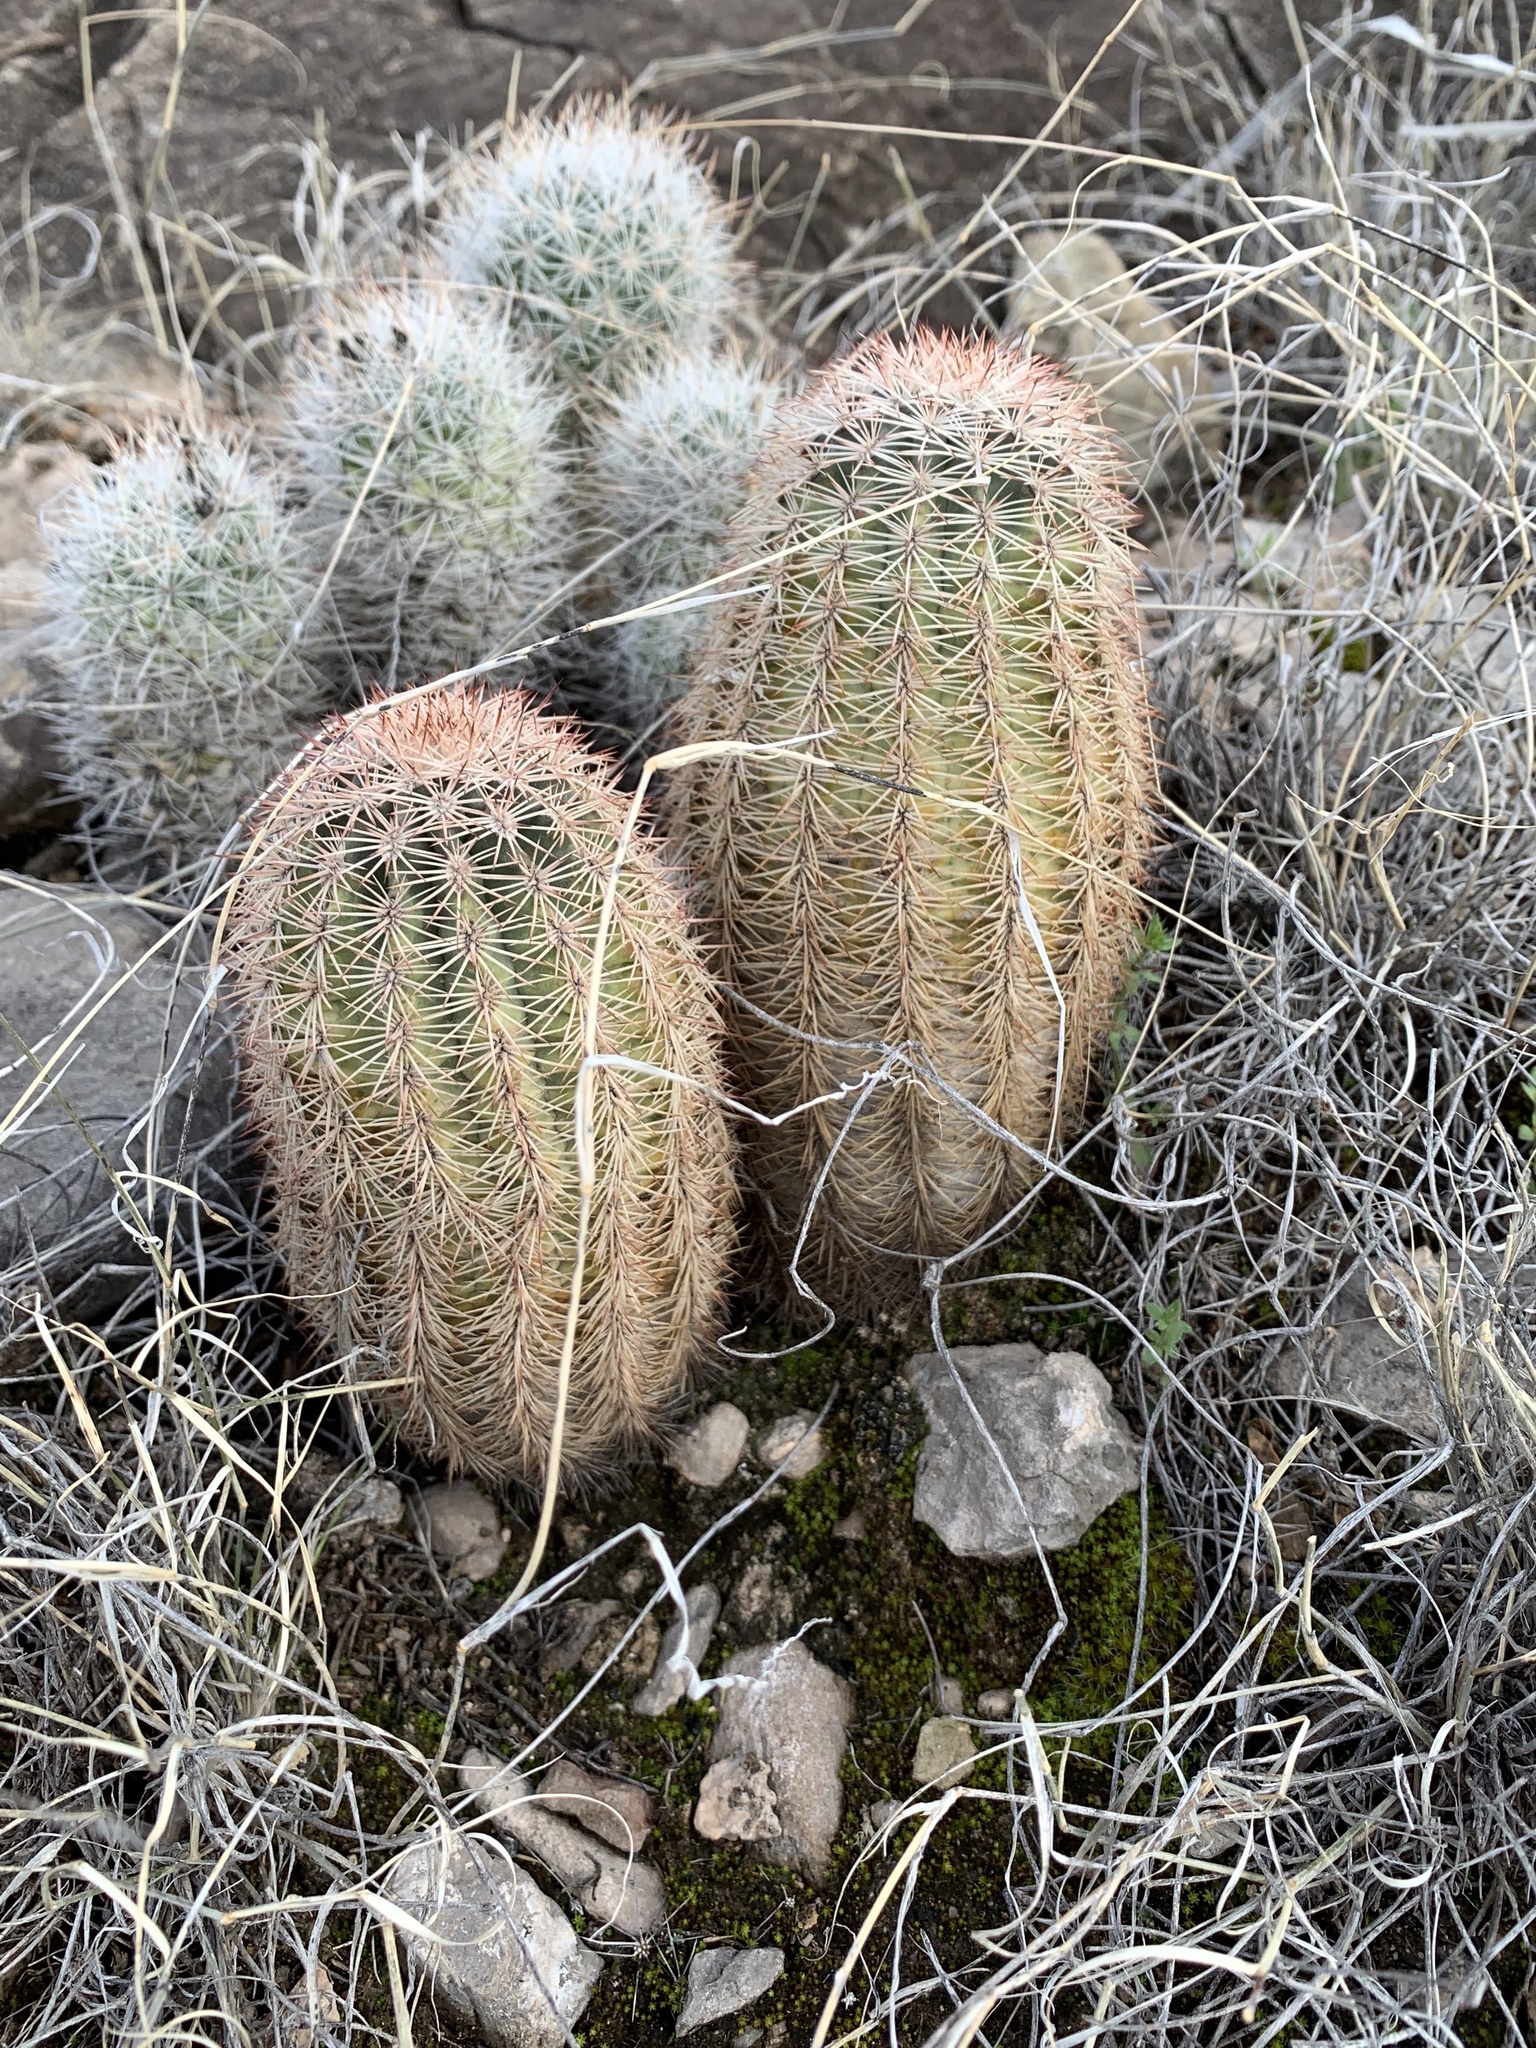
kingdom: Plantae
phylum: Tracheophyta
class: Magnoliopsida
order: Caryophyllales
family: Cactaceae
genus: Echinocereus
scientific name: Echinocereus dasyacanthus
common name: Spiny hedgehog cactus
